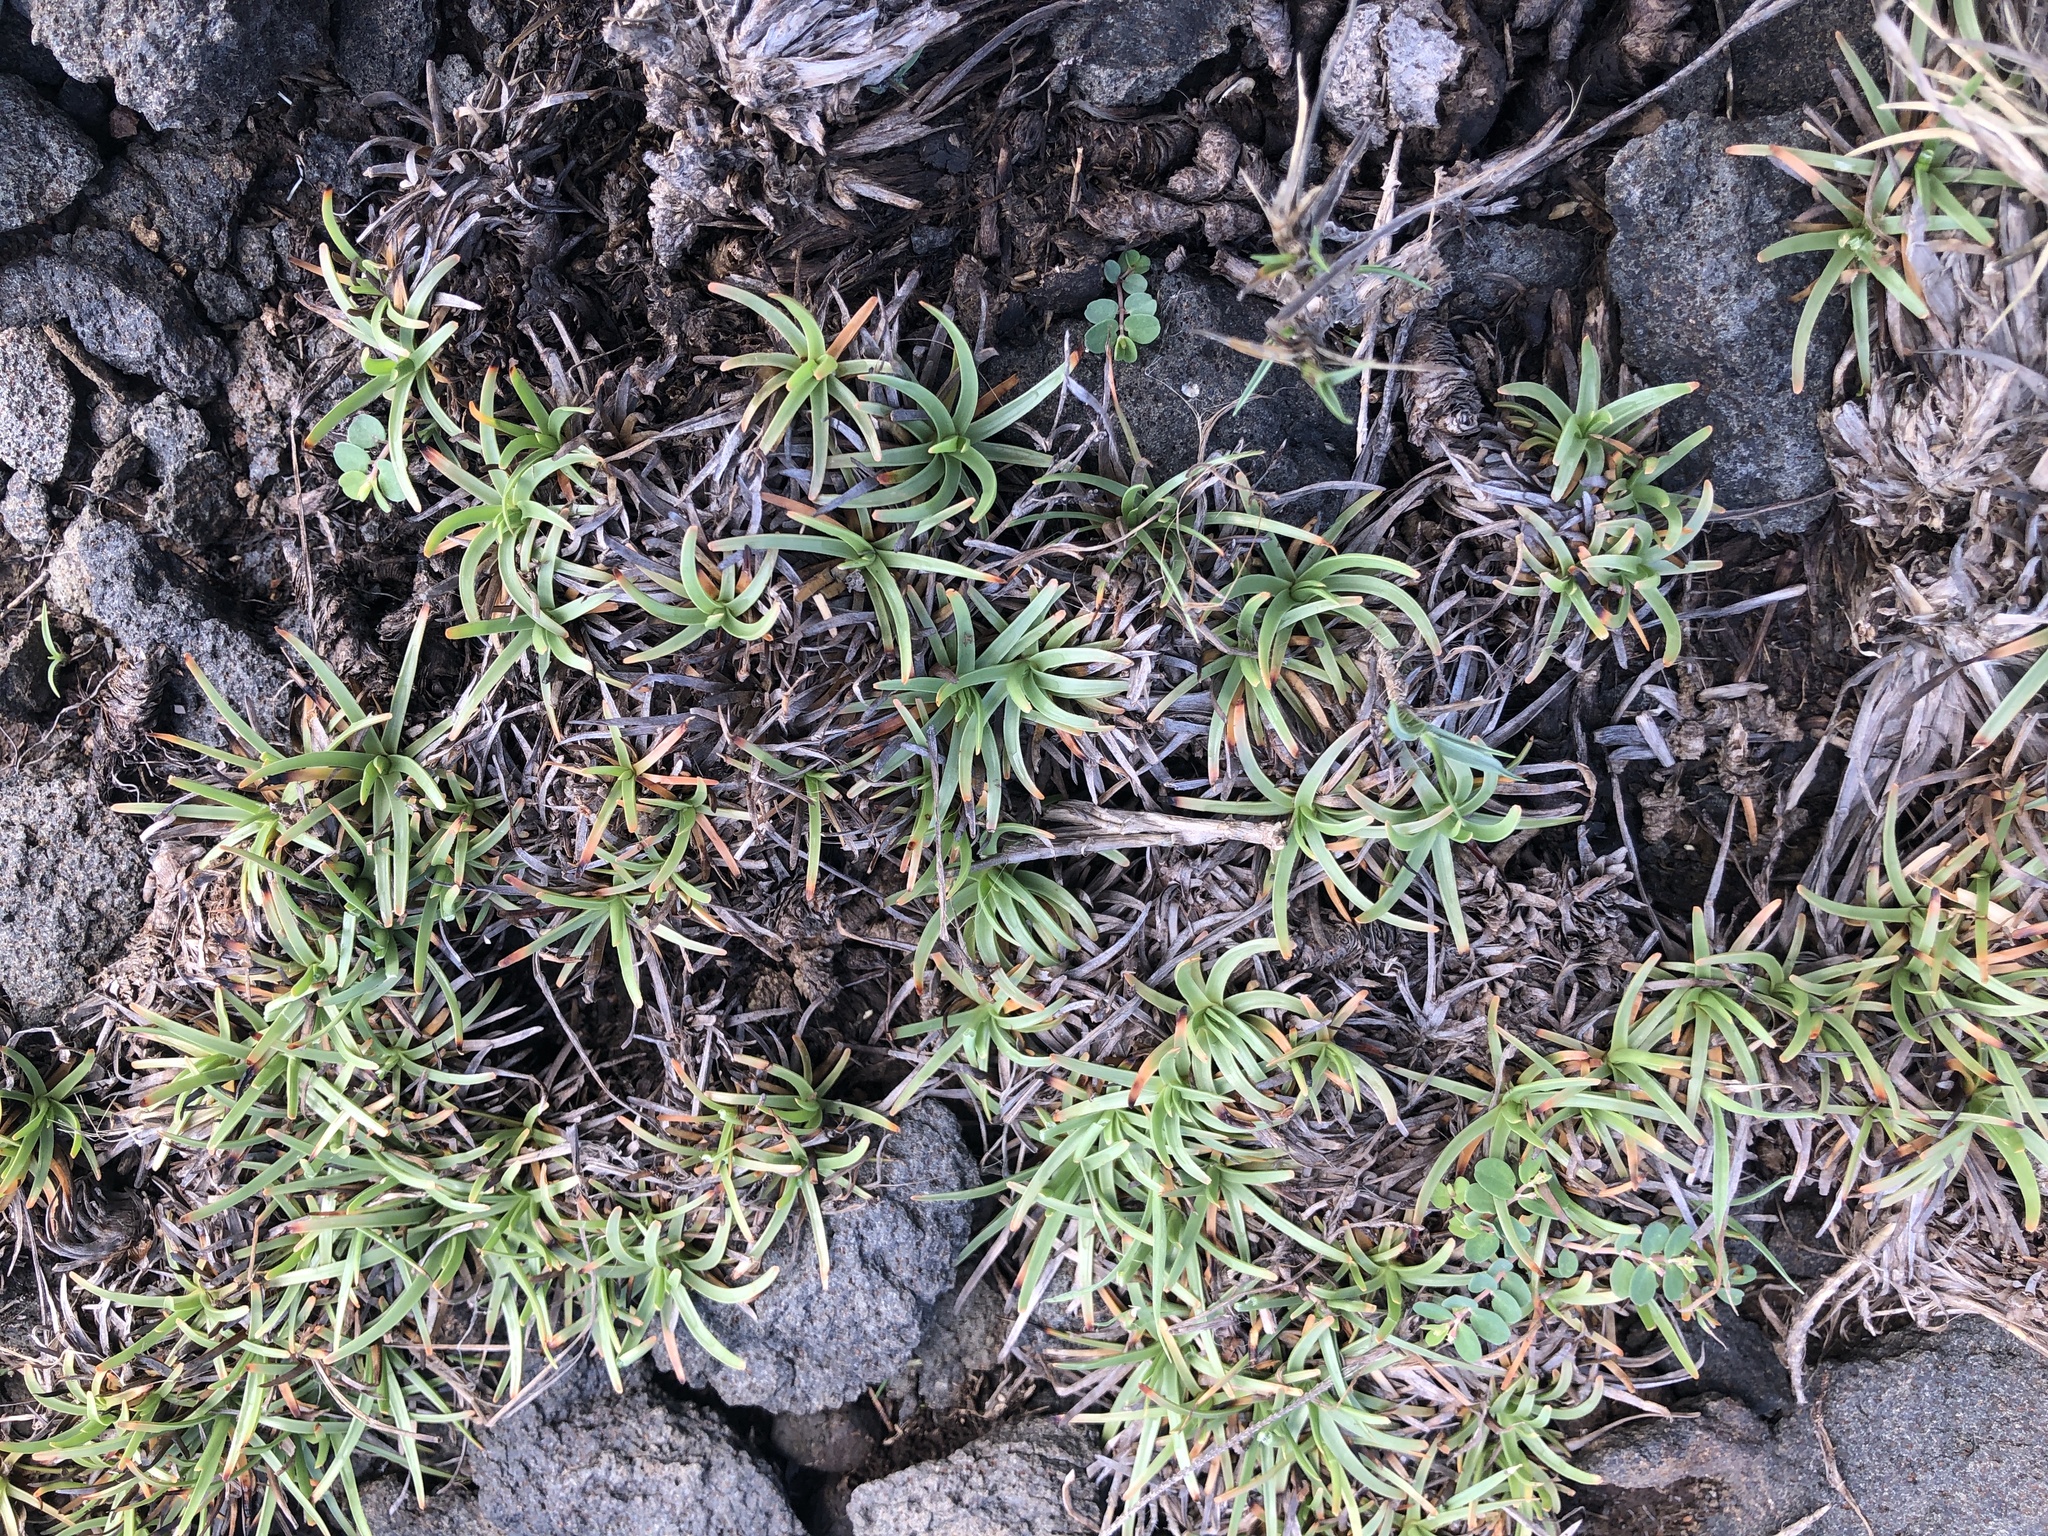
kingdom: Plantae
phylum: Tracheophyta
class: Liliopsida
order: Poales
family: Cyperaceae
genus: Fimbristylis
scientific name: Fimbristylis cymosa
